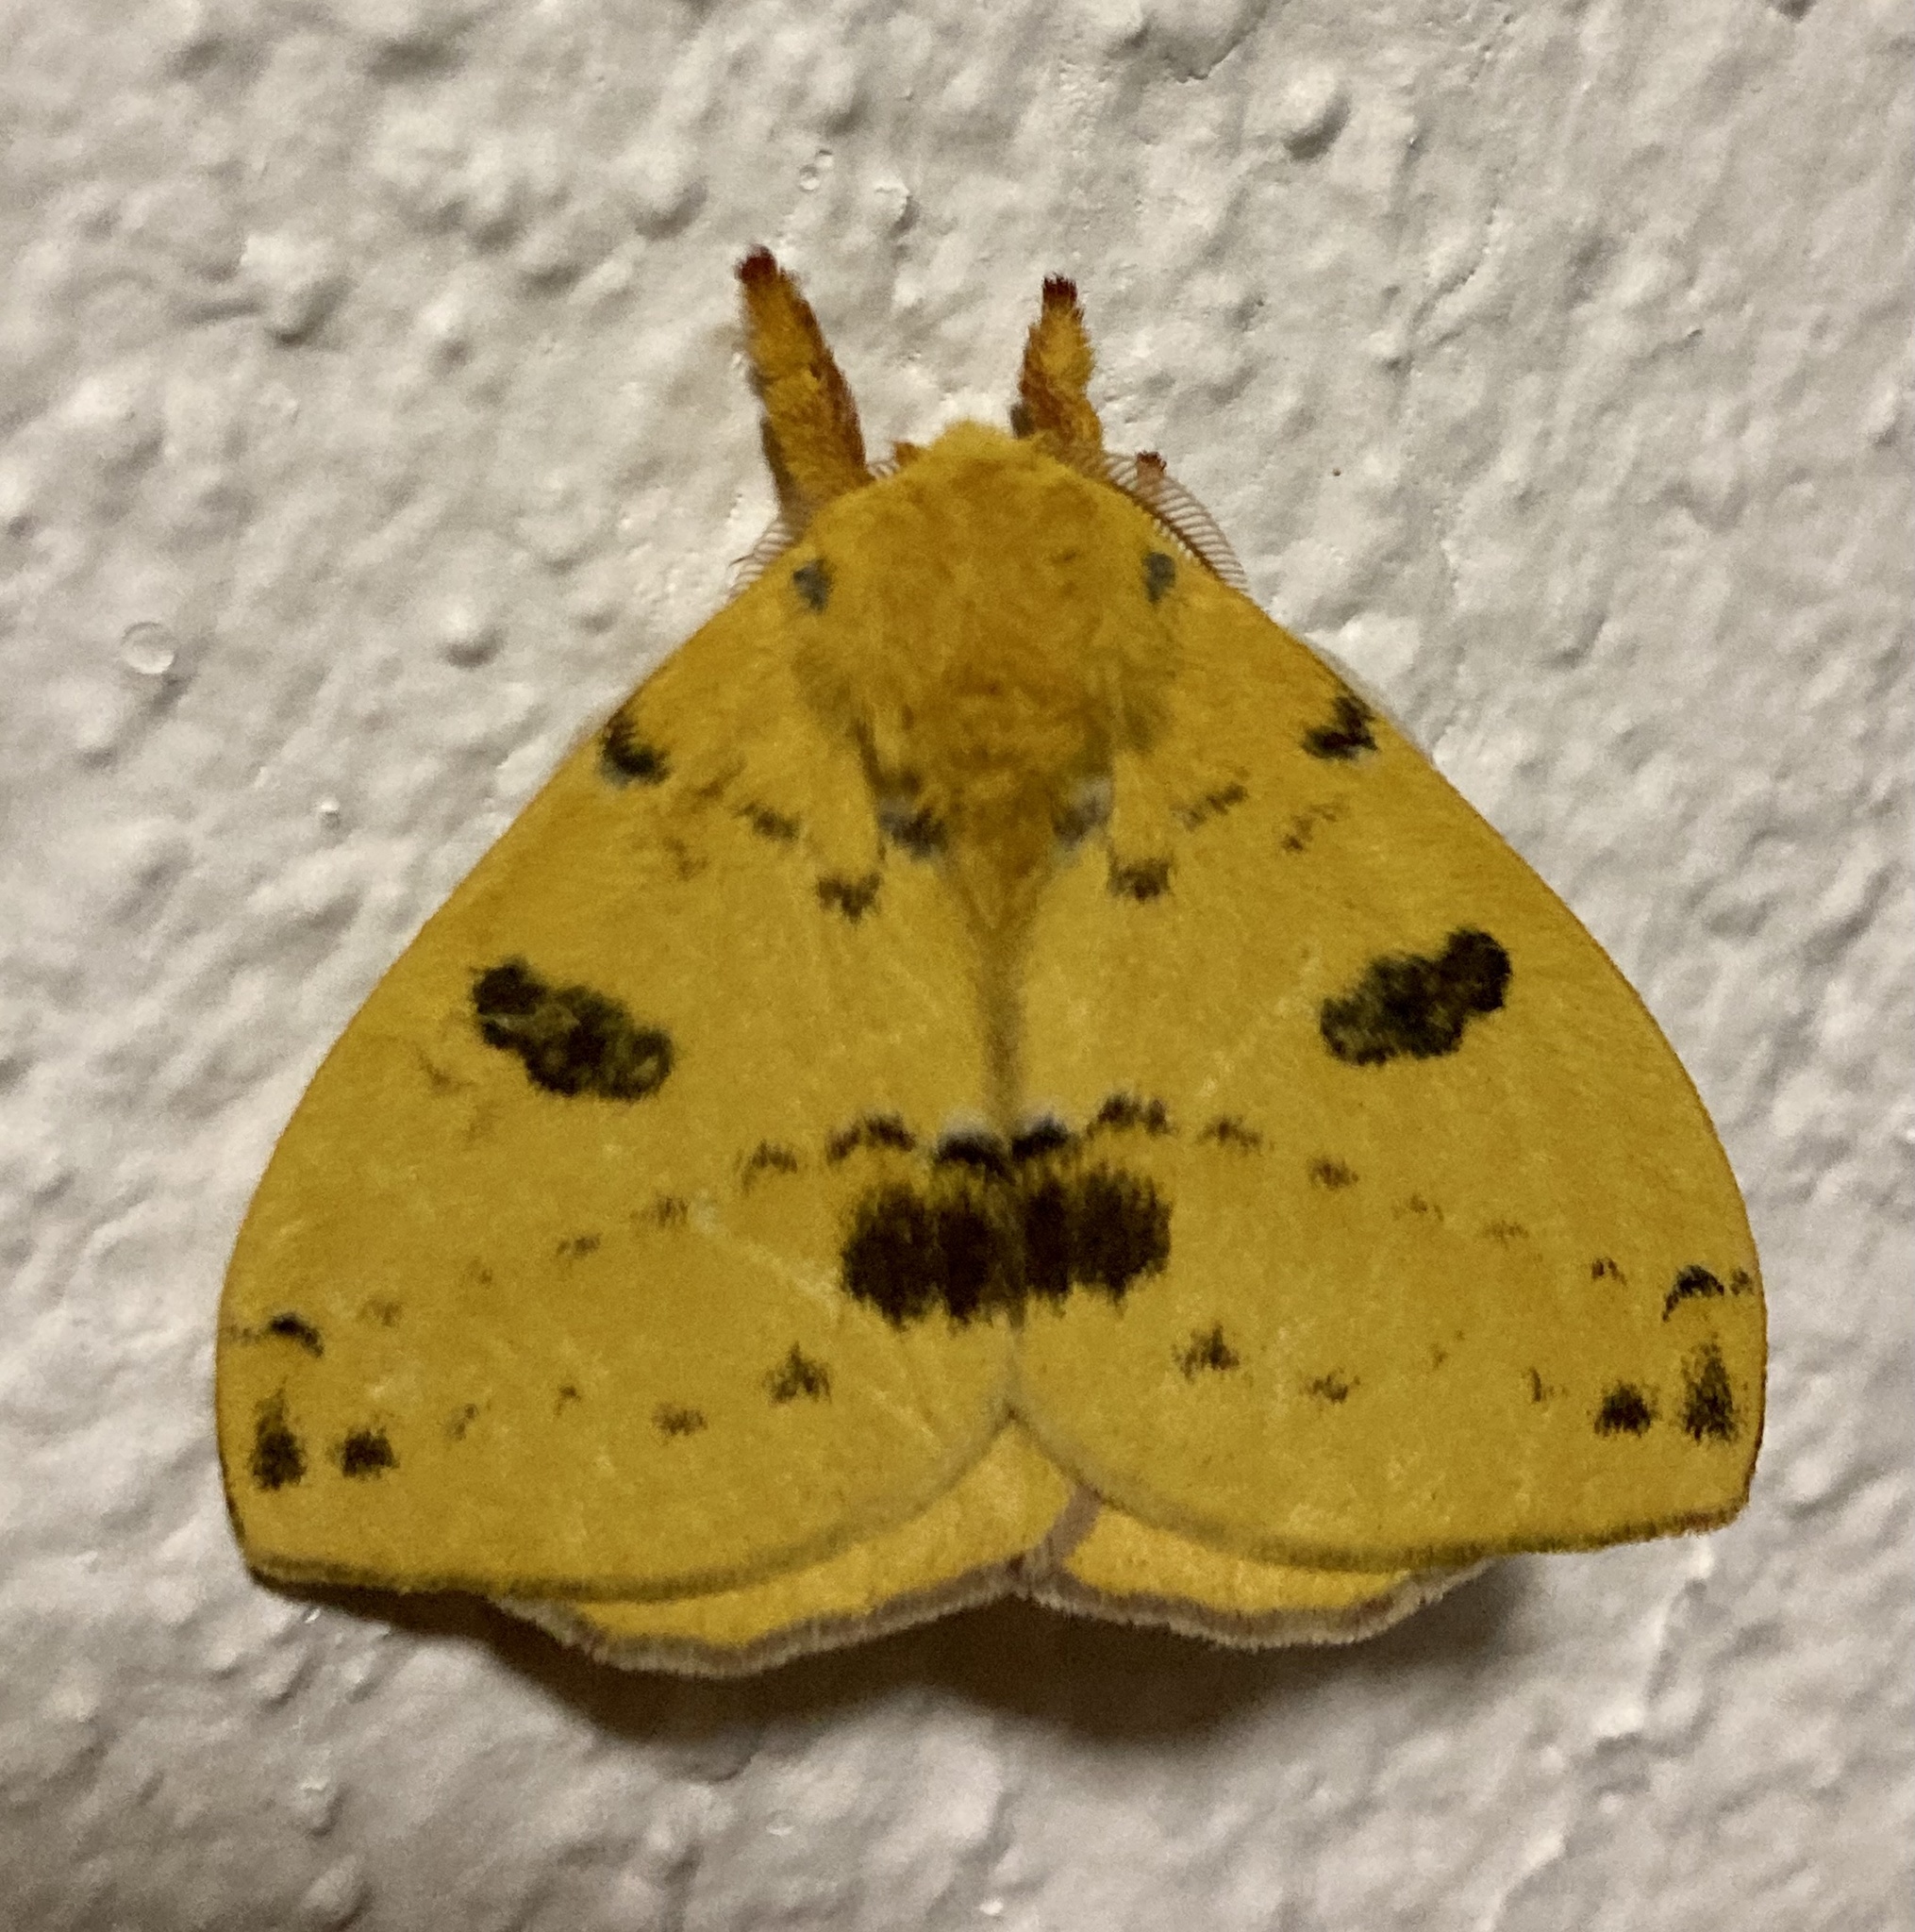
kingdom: Animalia
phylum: Arthropoda
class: Insecta
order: Lepidoptera
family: Saturniidae
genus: Automeris
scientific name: Automeris io
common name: Io moth
